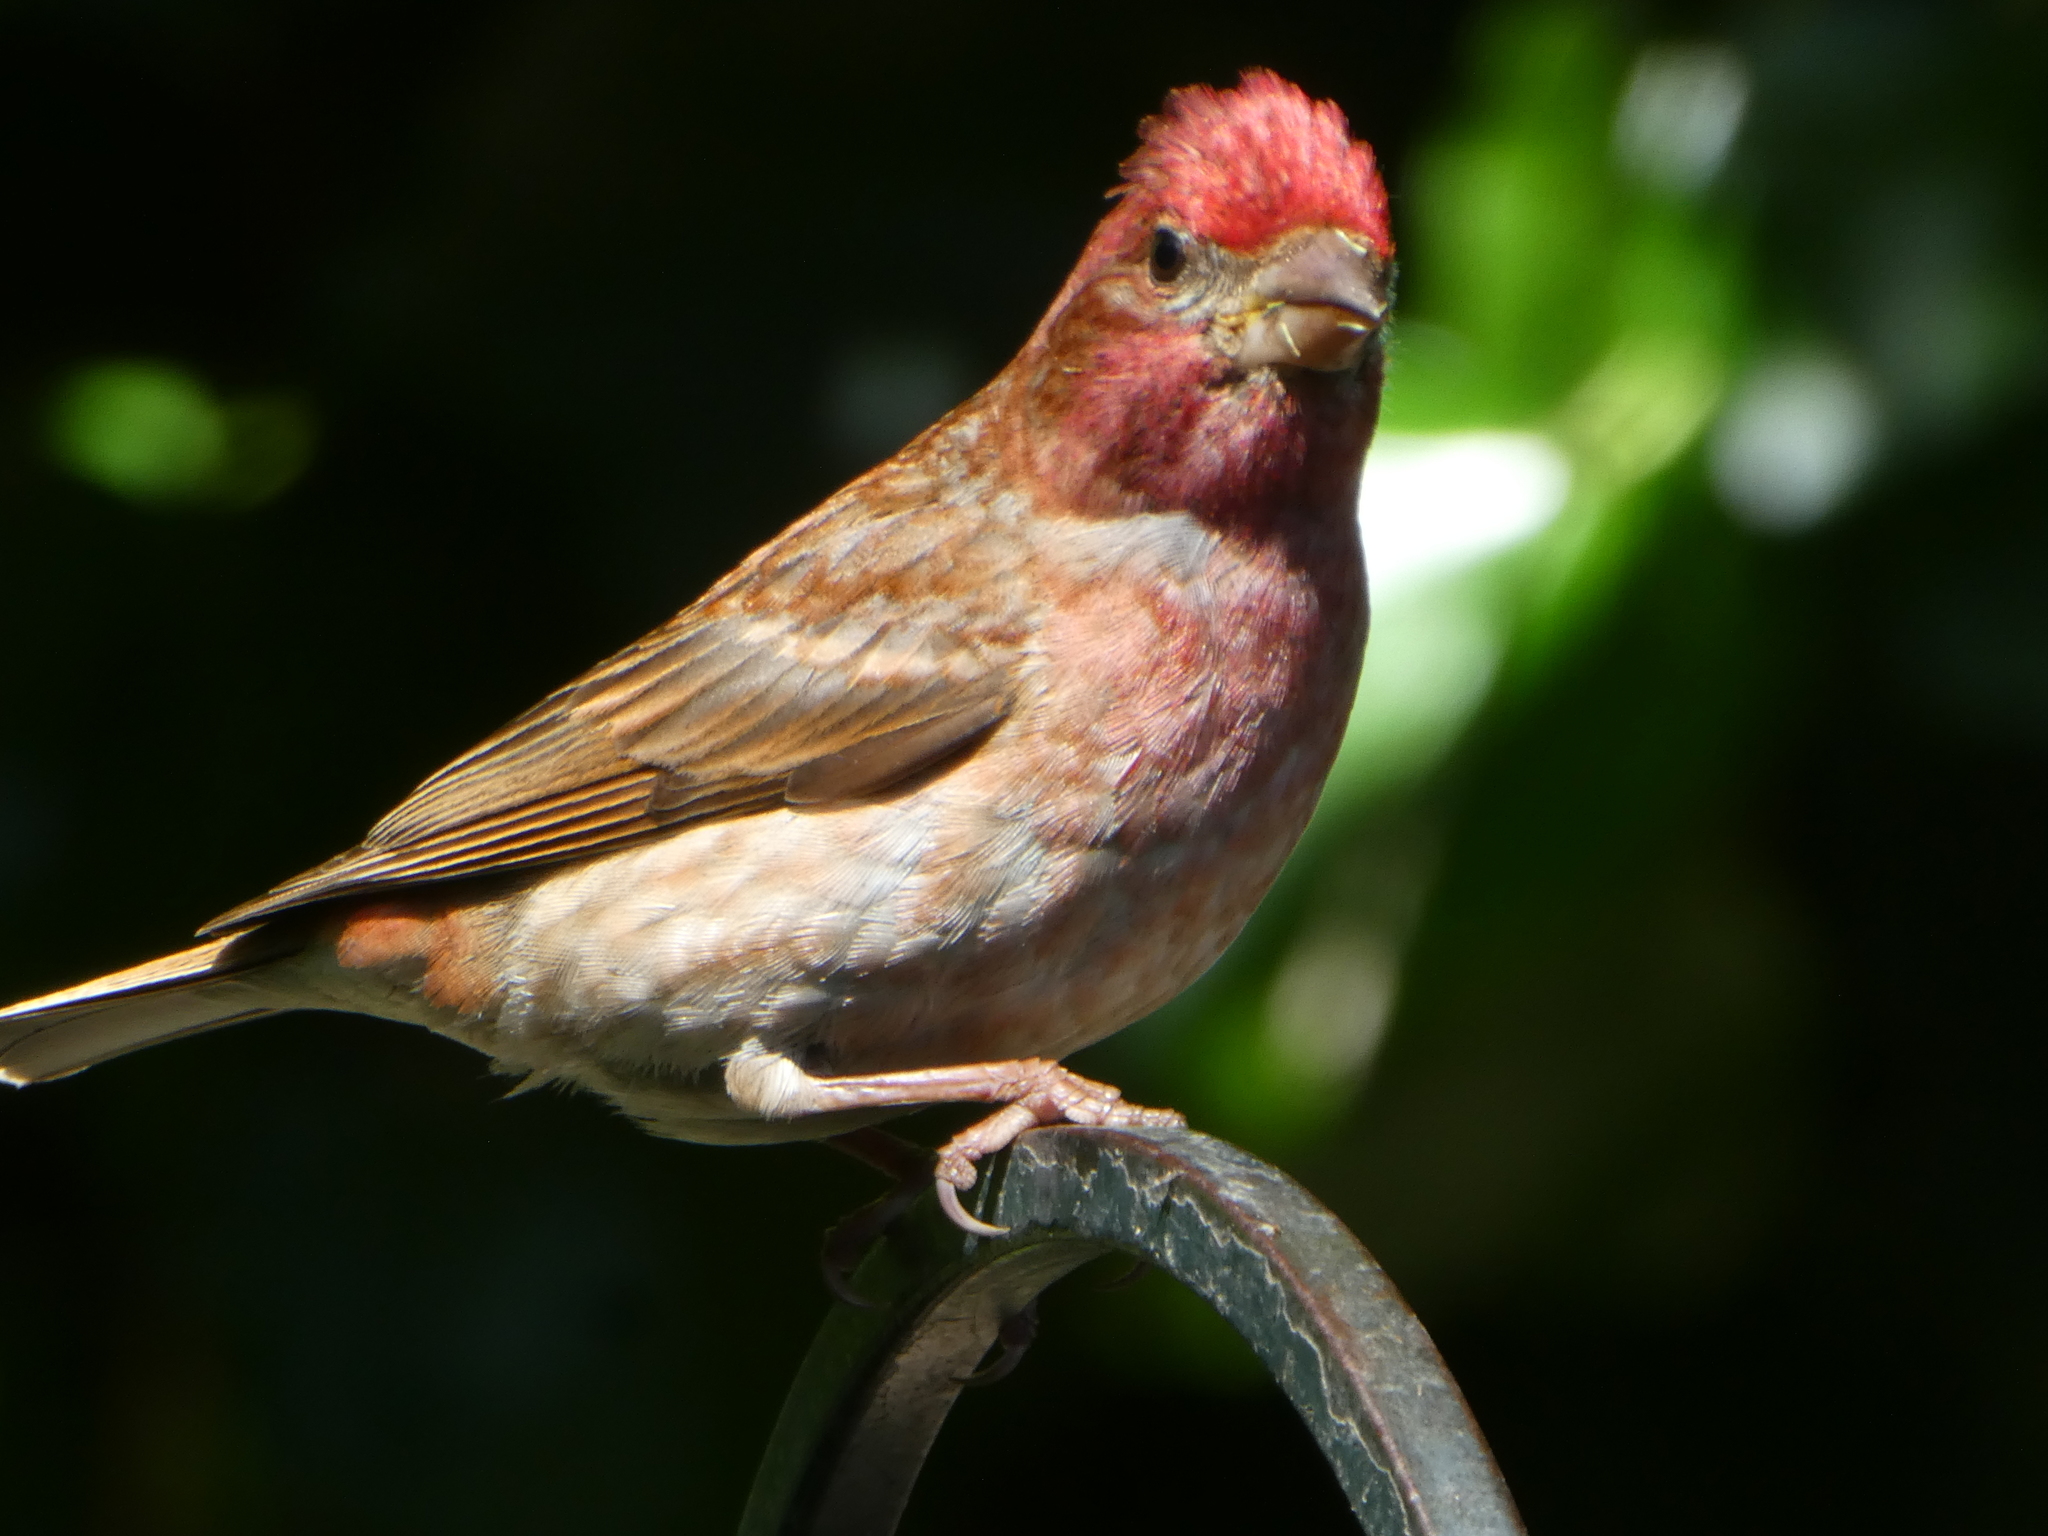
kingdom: Animalia
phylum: Chordata
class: Aves
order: Passeriformes
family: Fringillidae
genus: Haemorhous
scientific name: Haemorhous purpureus
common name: Purple finch
